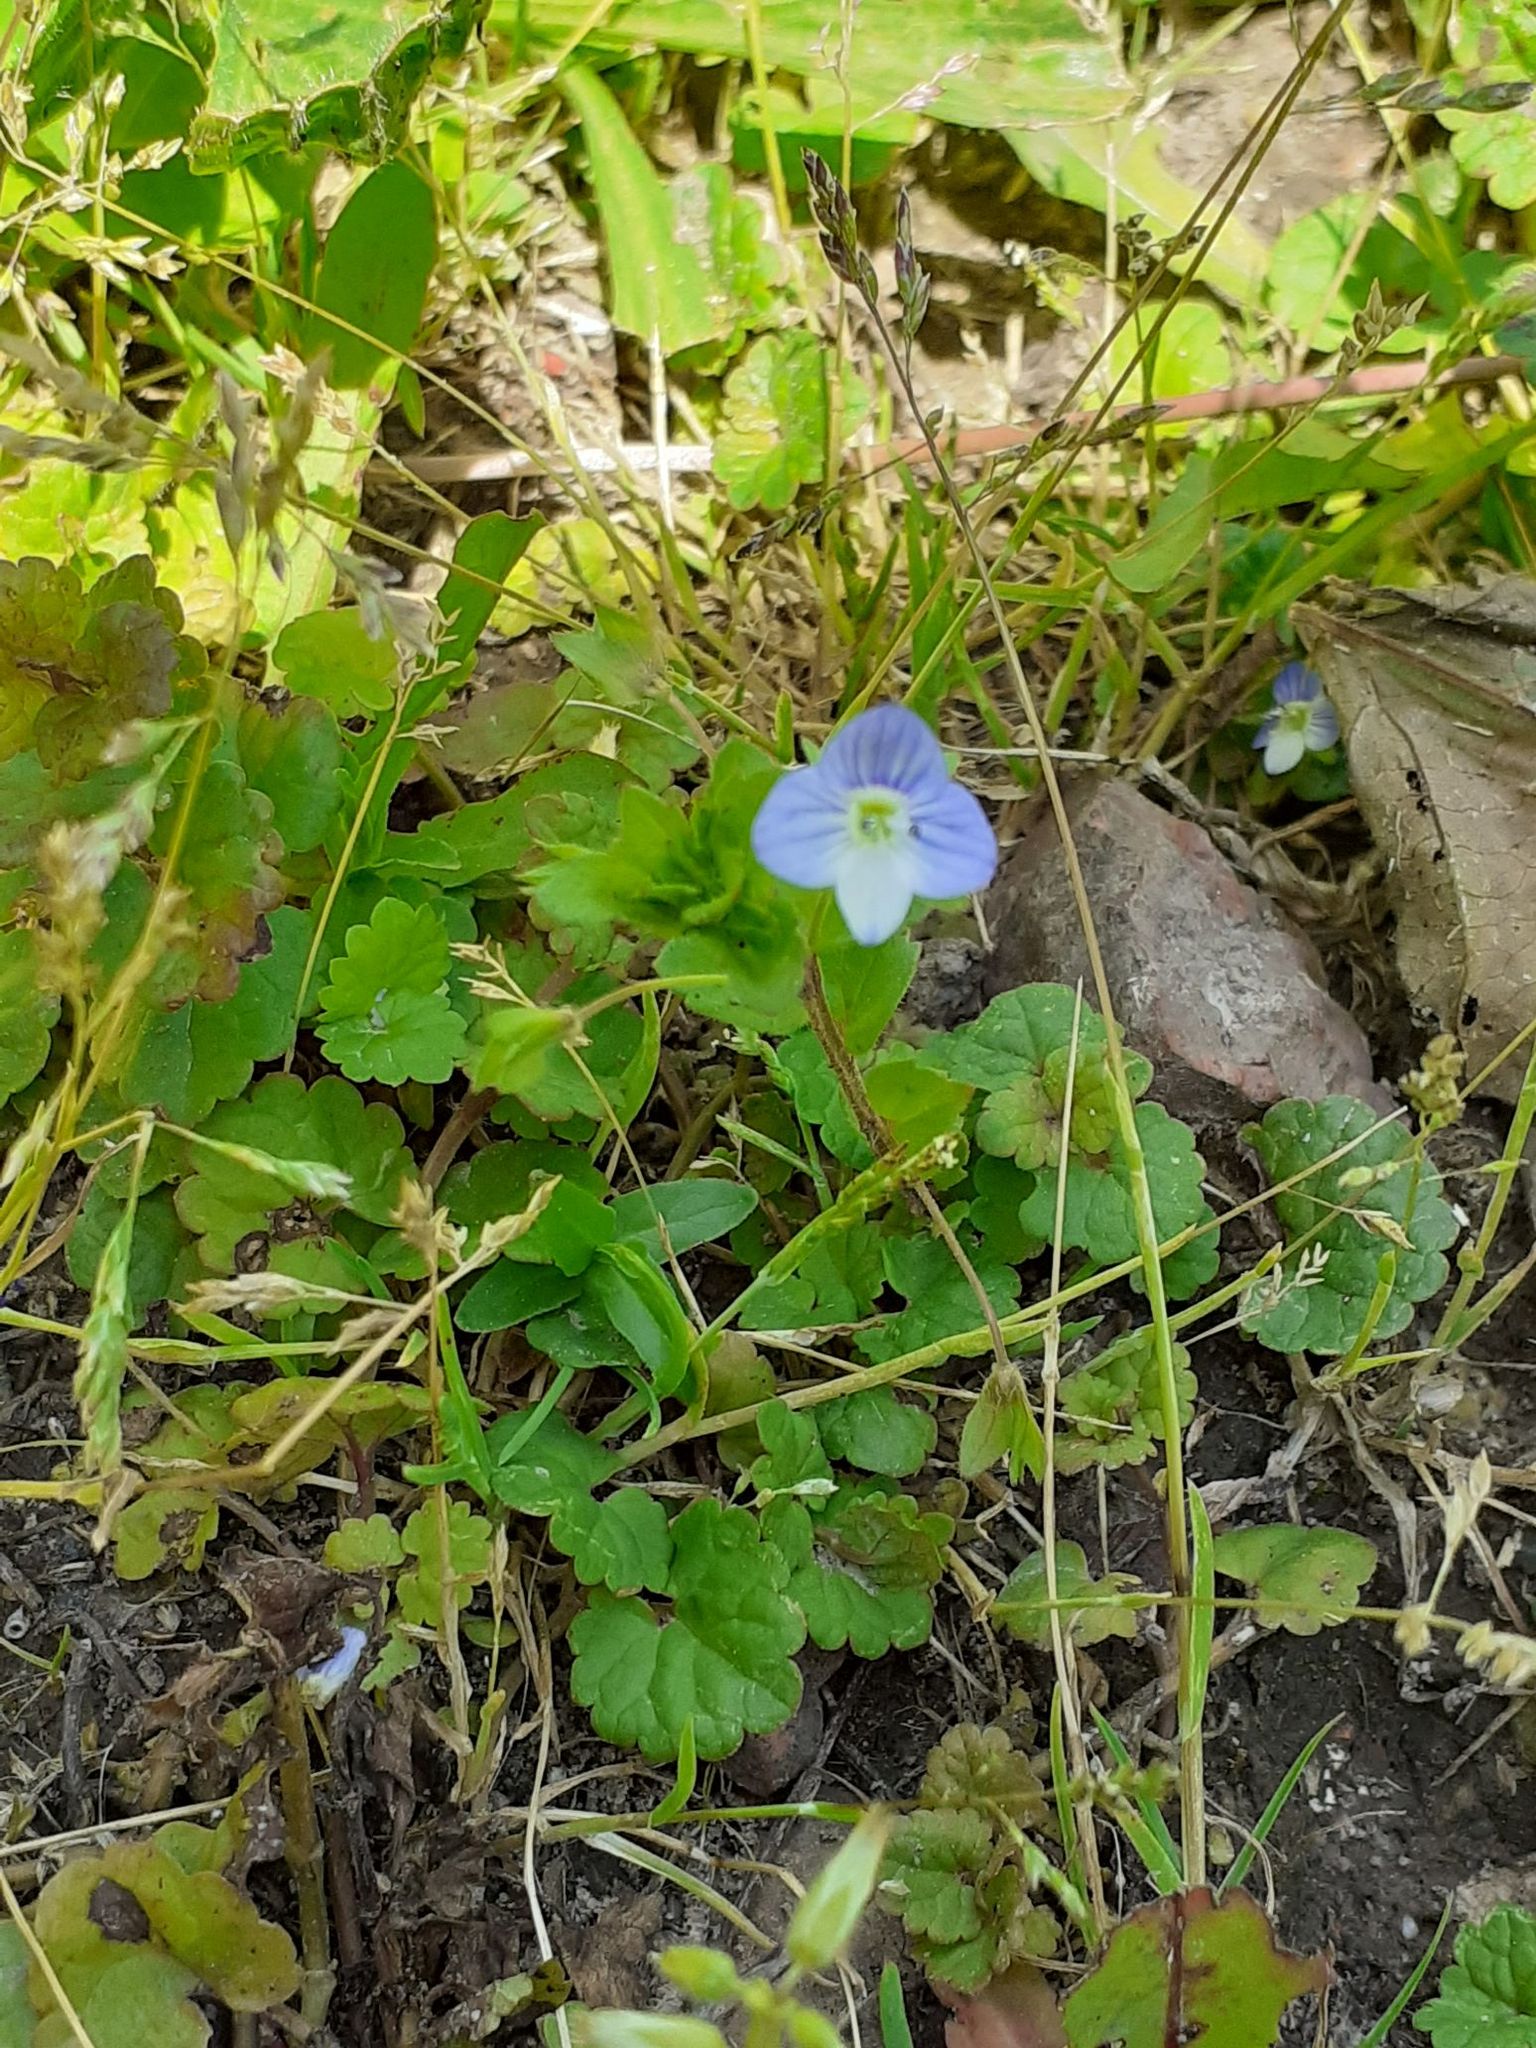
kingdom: Plantae
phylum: Tracheophyta
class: Magnoliopsida
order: Lamiales
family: Plantaginaceae
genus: Veronica
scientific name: Veronica persica
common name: Common field-speedwell
